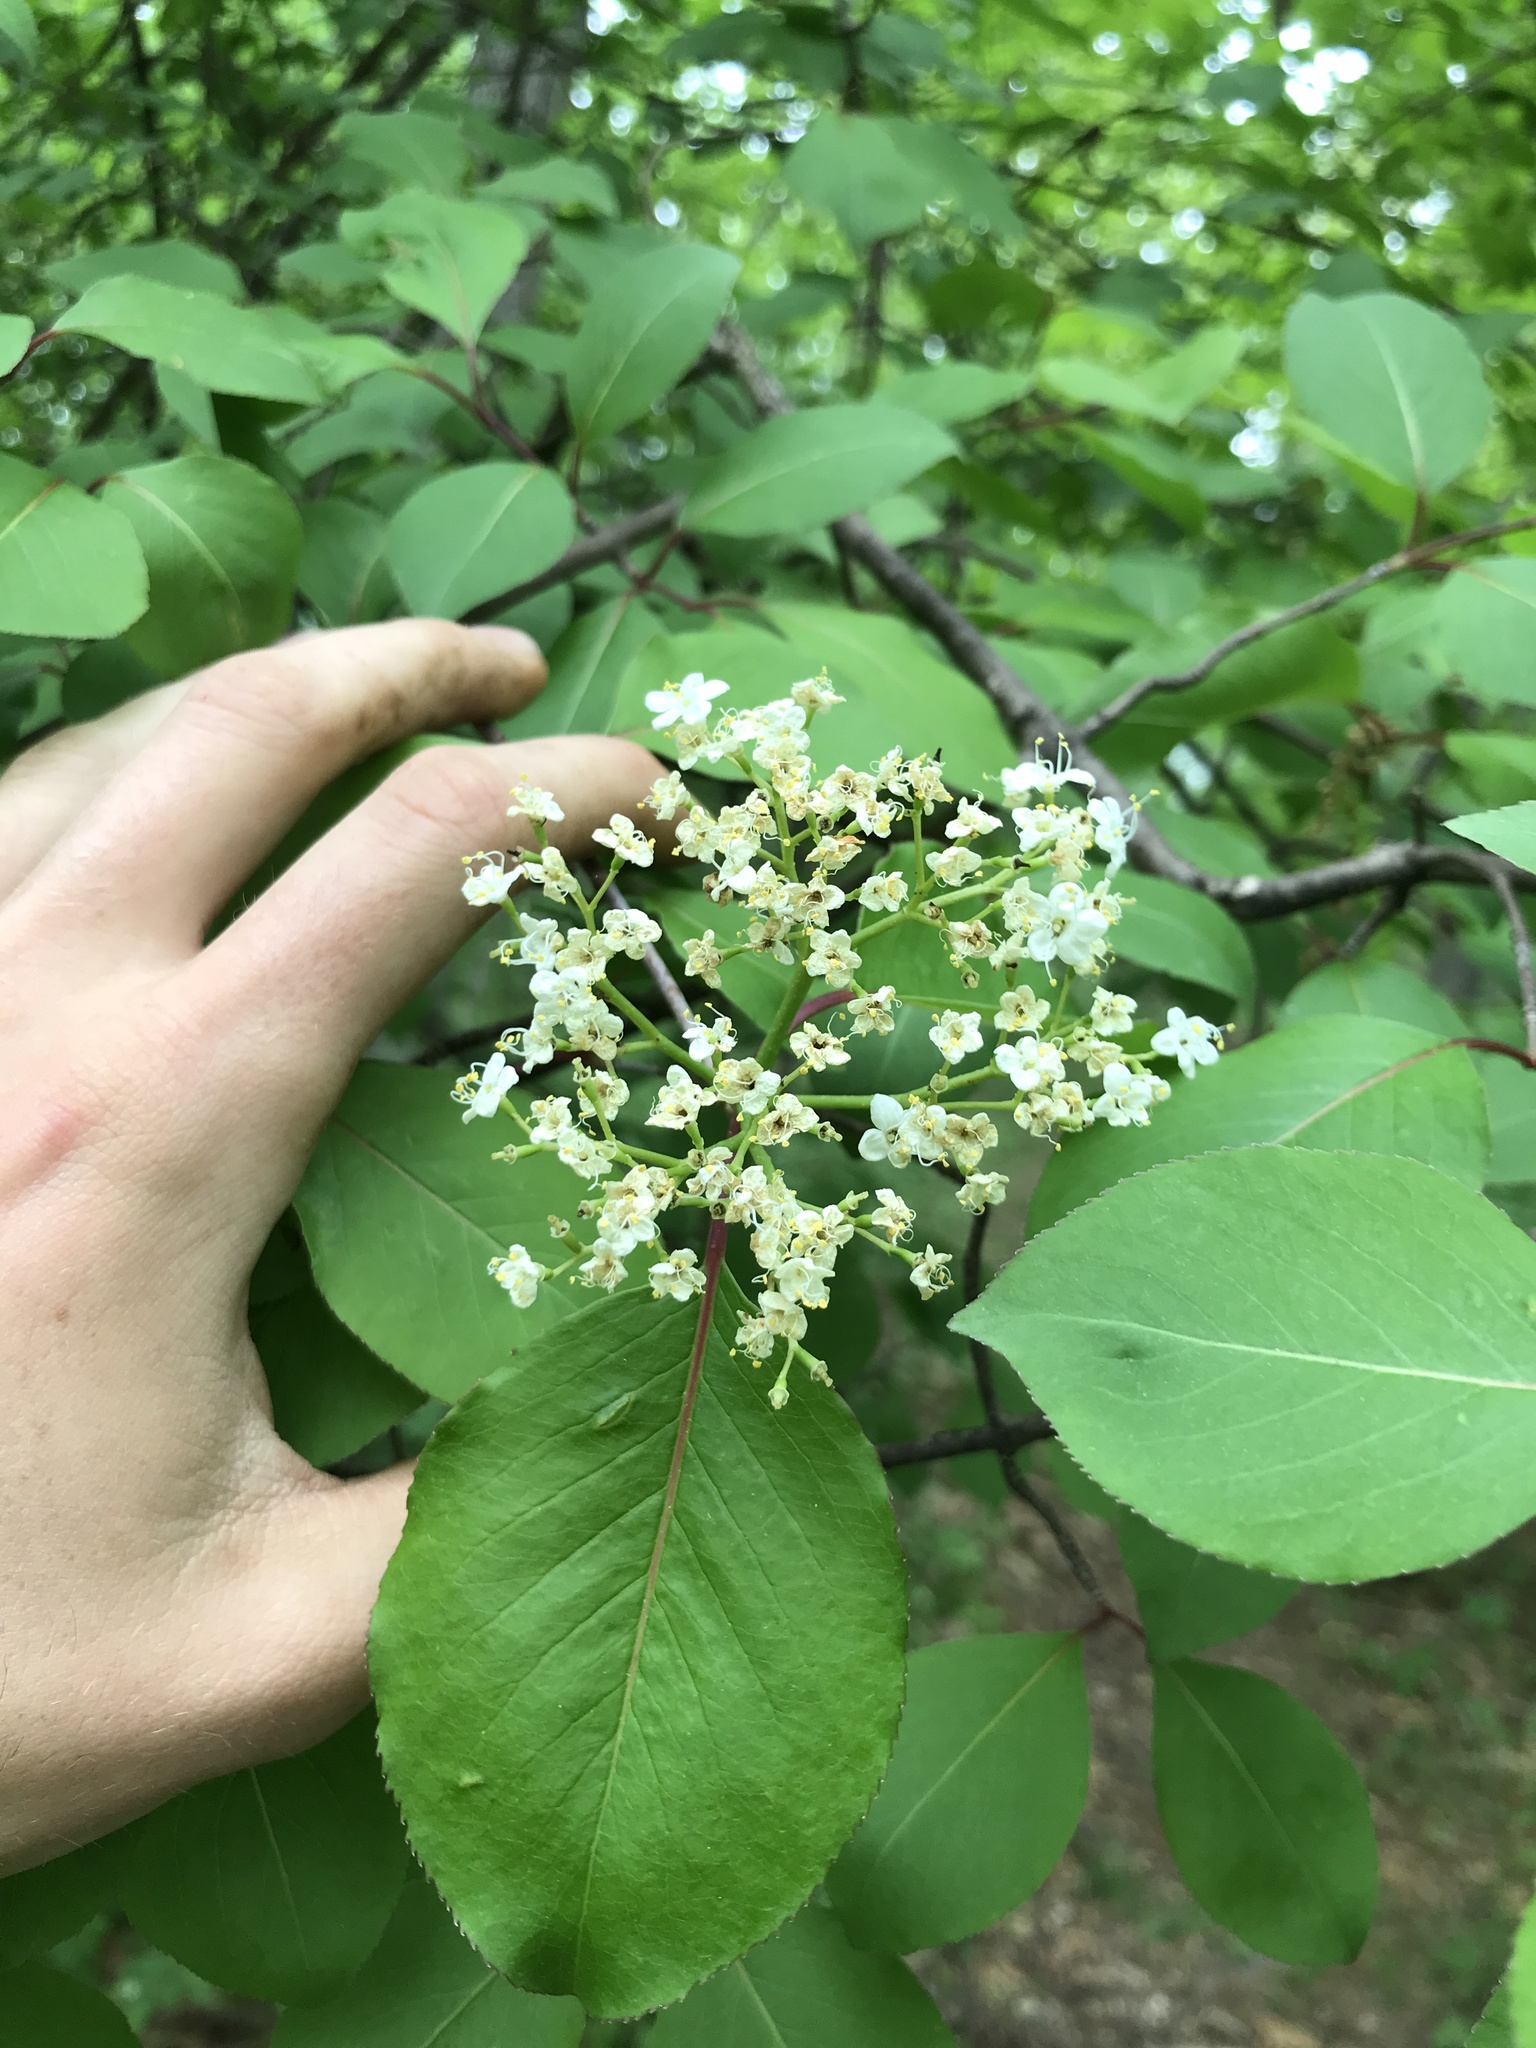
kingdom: Plantae
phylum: Tracheophyta
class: Magnoliopsida
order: Dipsacales
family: Viburnaceae
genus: Viburnum
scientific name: Viburnum prunifolium
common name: Black haw
